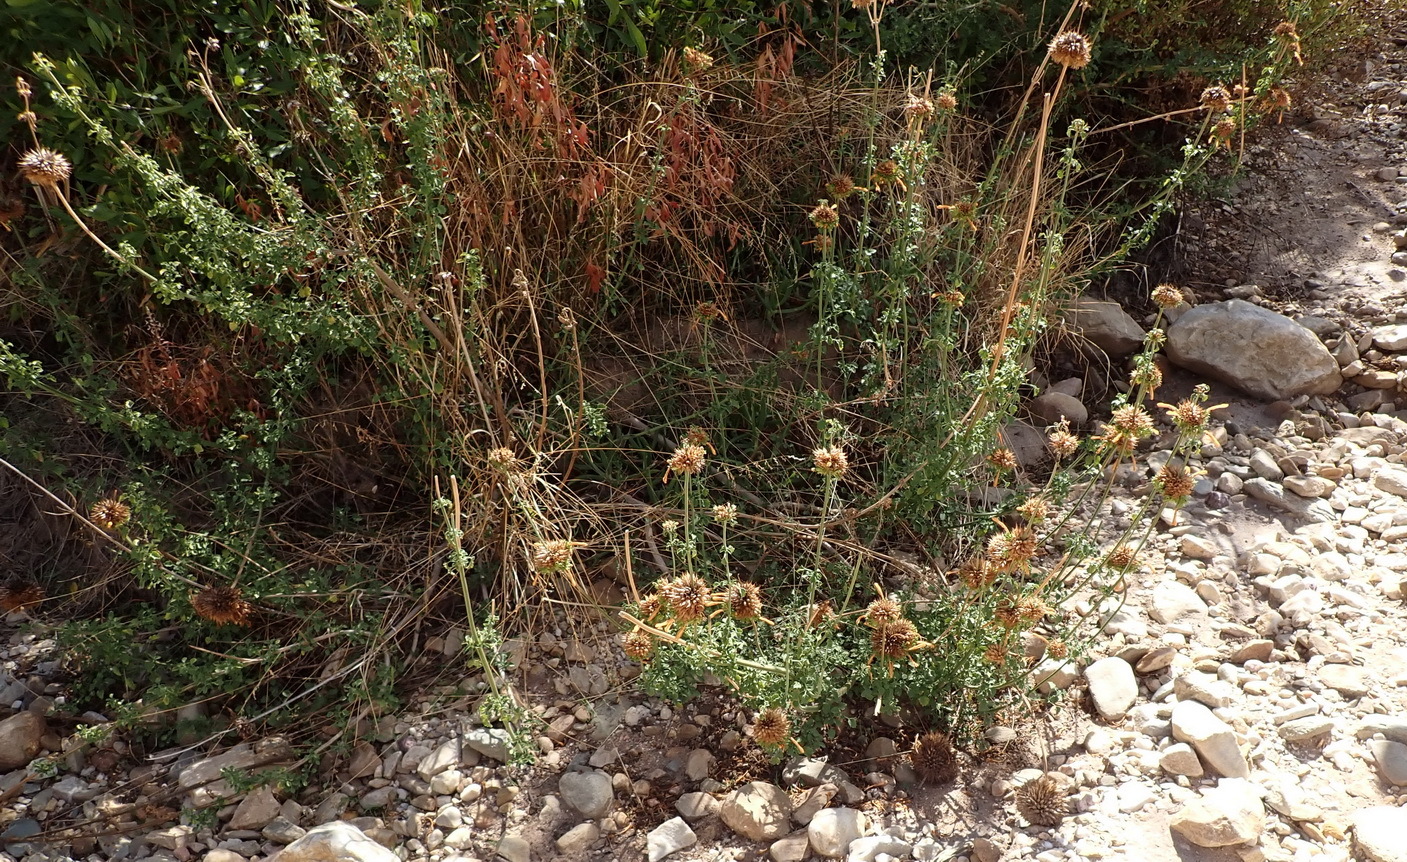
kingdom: Plantae
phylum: Tracheophyta
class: Magnoliopsida
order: Lamiales
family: Lamiaceae
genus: Leonotis
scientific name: Leonotis ocymifolia
